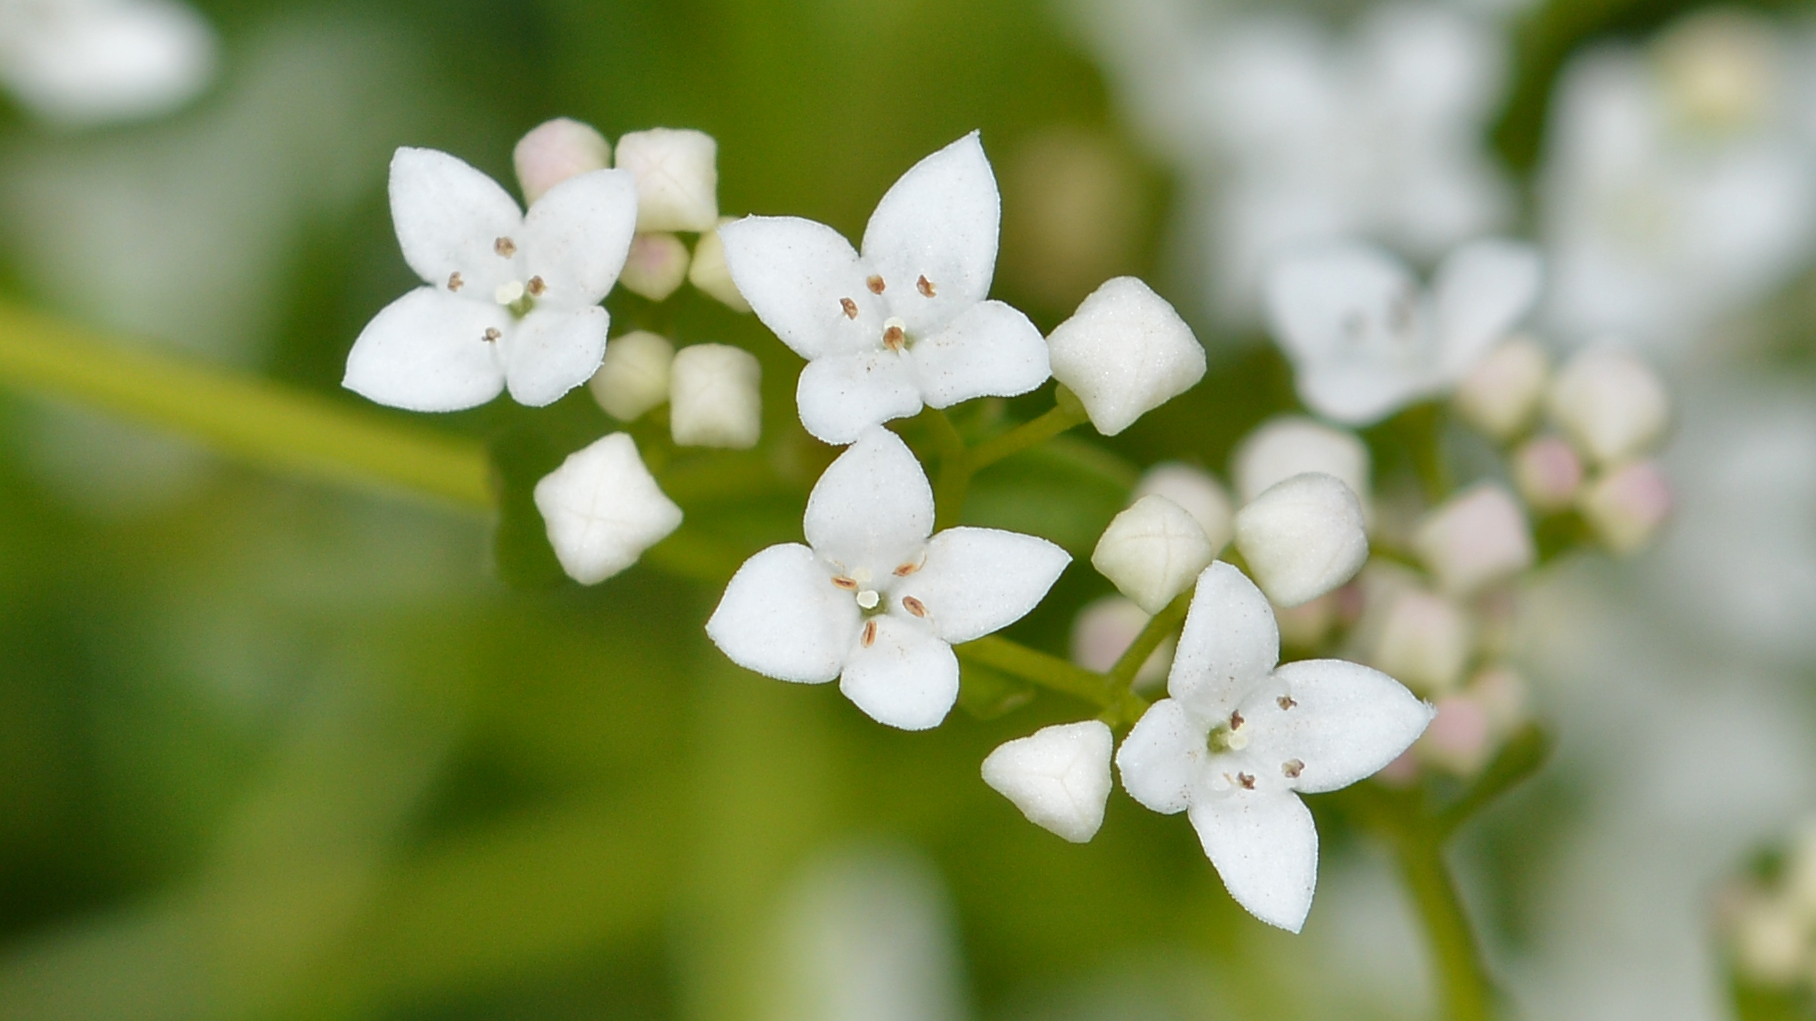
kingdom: Plantae
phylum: Tracheophyta
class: Magnoliopsida
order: Gentianales
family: Rubiaceae
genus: Galium
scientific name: Galium palustre
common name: Common marsh-bedstraw
